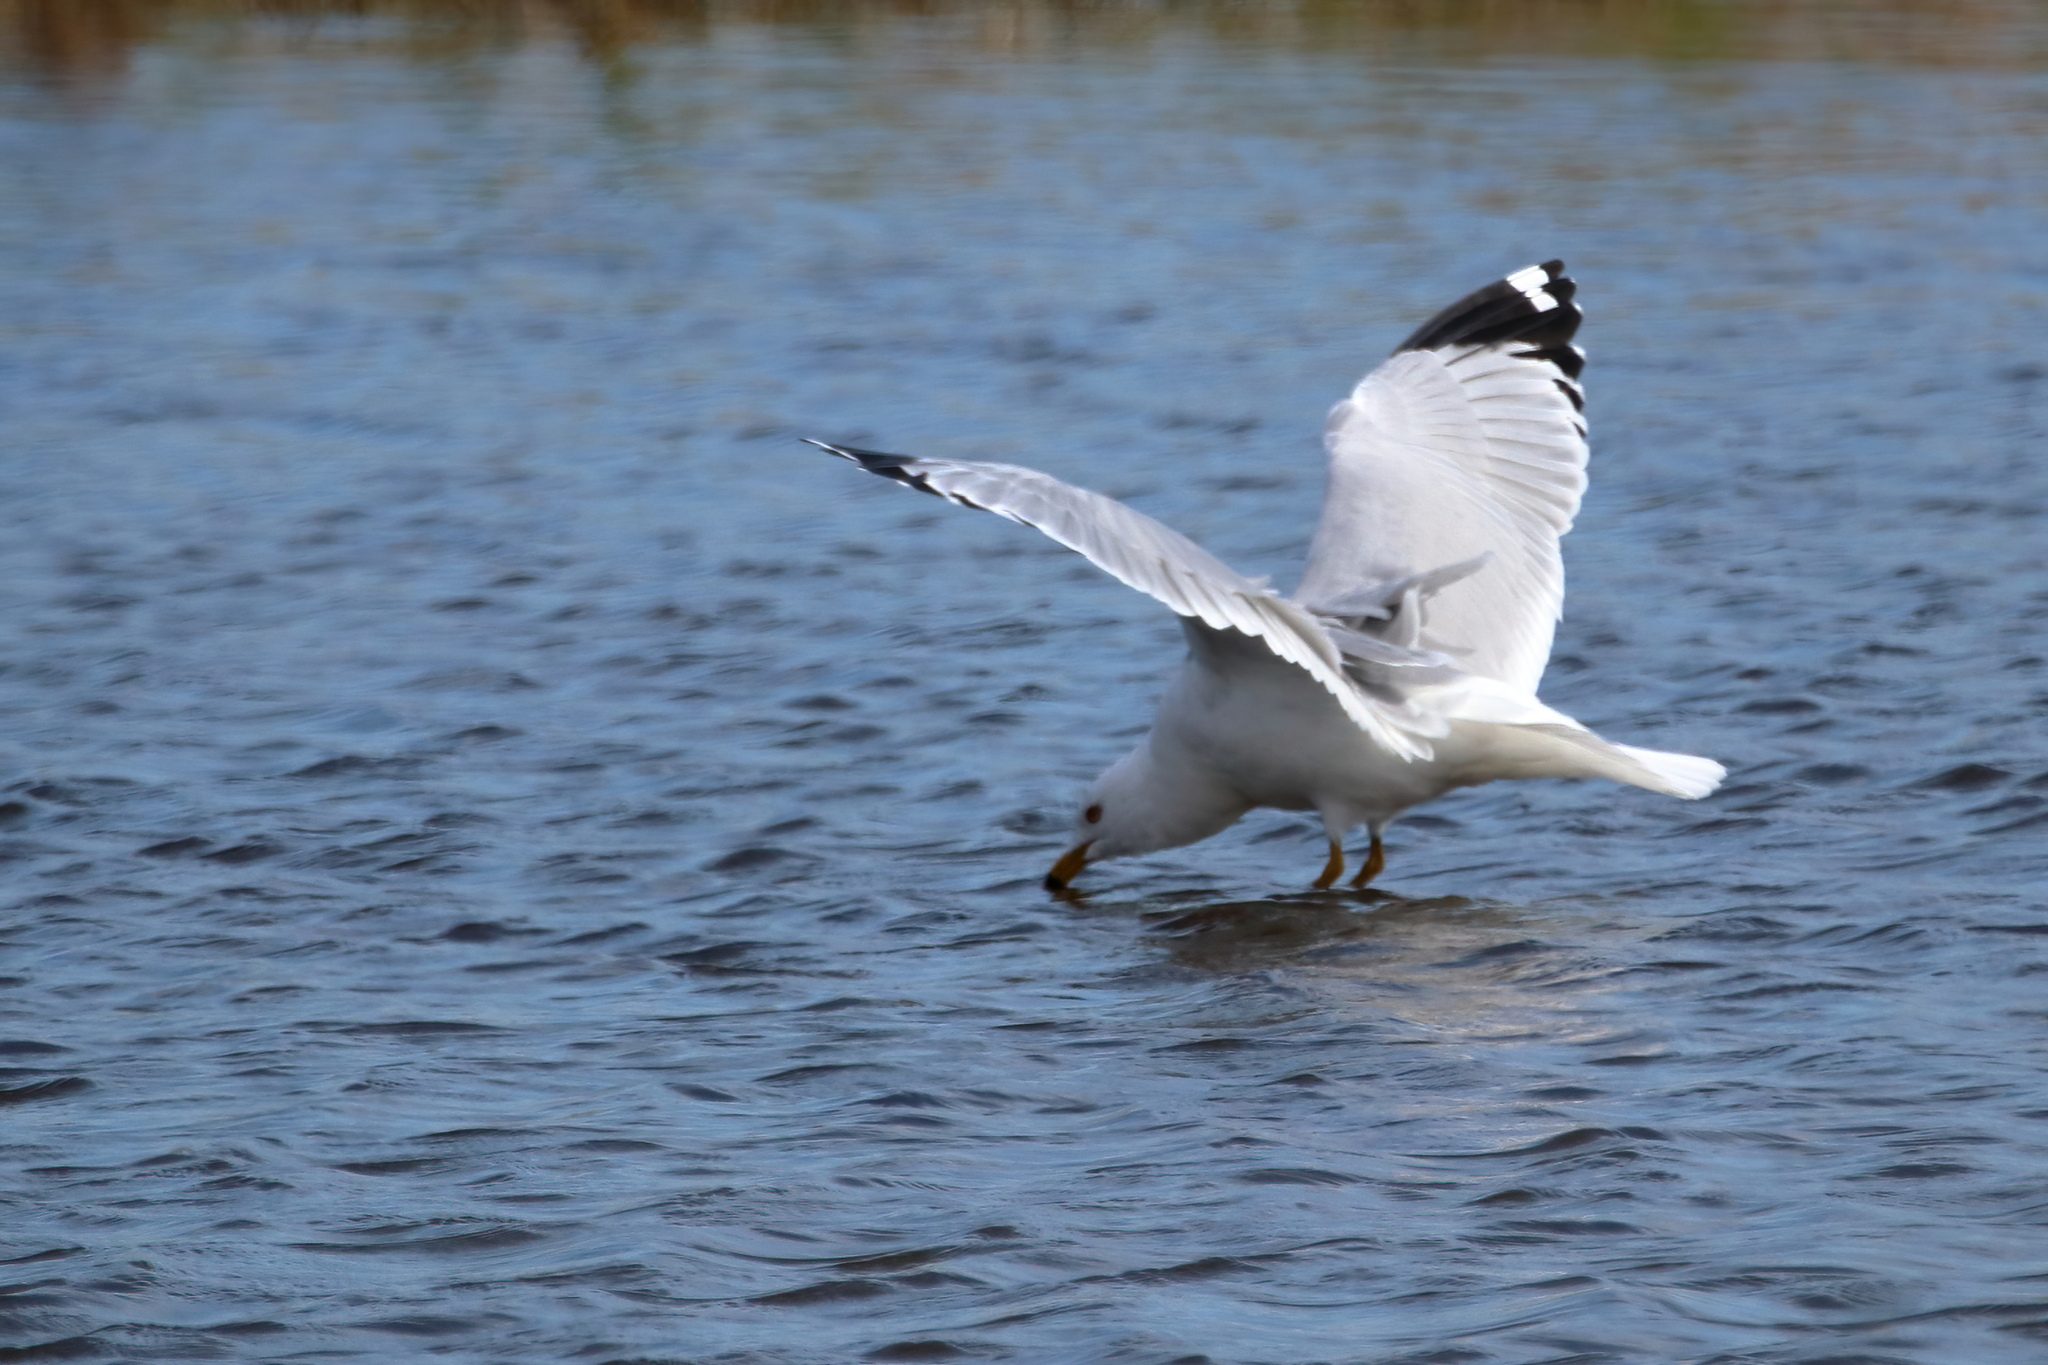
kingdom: Animalia
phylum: Chordata
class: Aves
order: Charadriiformes
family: Laridae
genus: Larus
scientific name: Larus delawarensis
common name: Ring-billed gull
